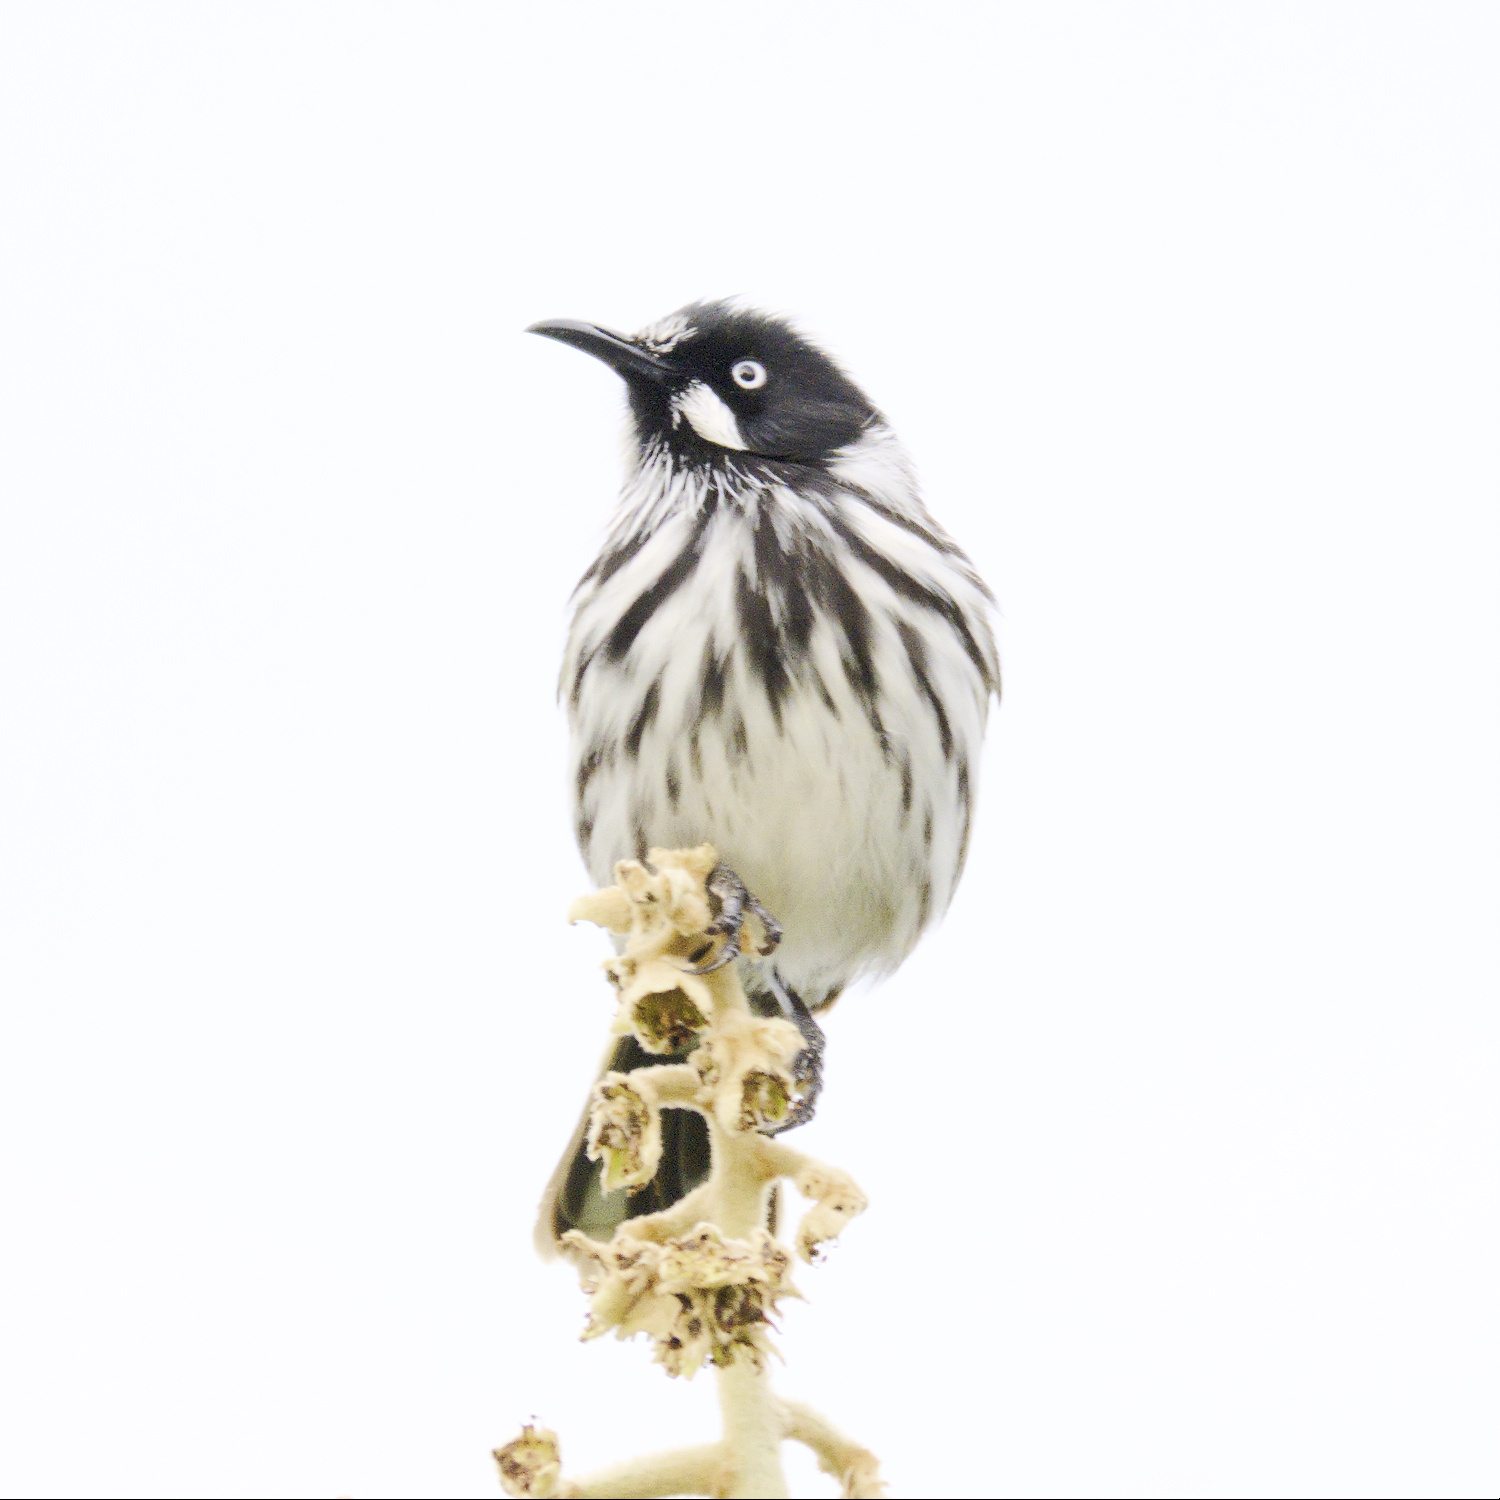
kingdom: Animalia
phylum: Chordata
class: Aves
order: Passeriformes
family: Meliphagidae
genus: Phylidonyris
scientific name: Phylidonyris novaehollandiae
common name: New holland honeyeater
